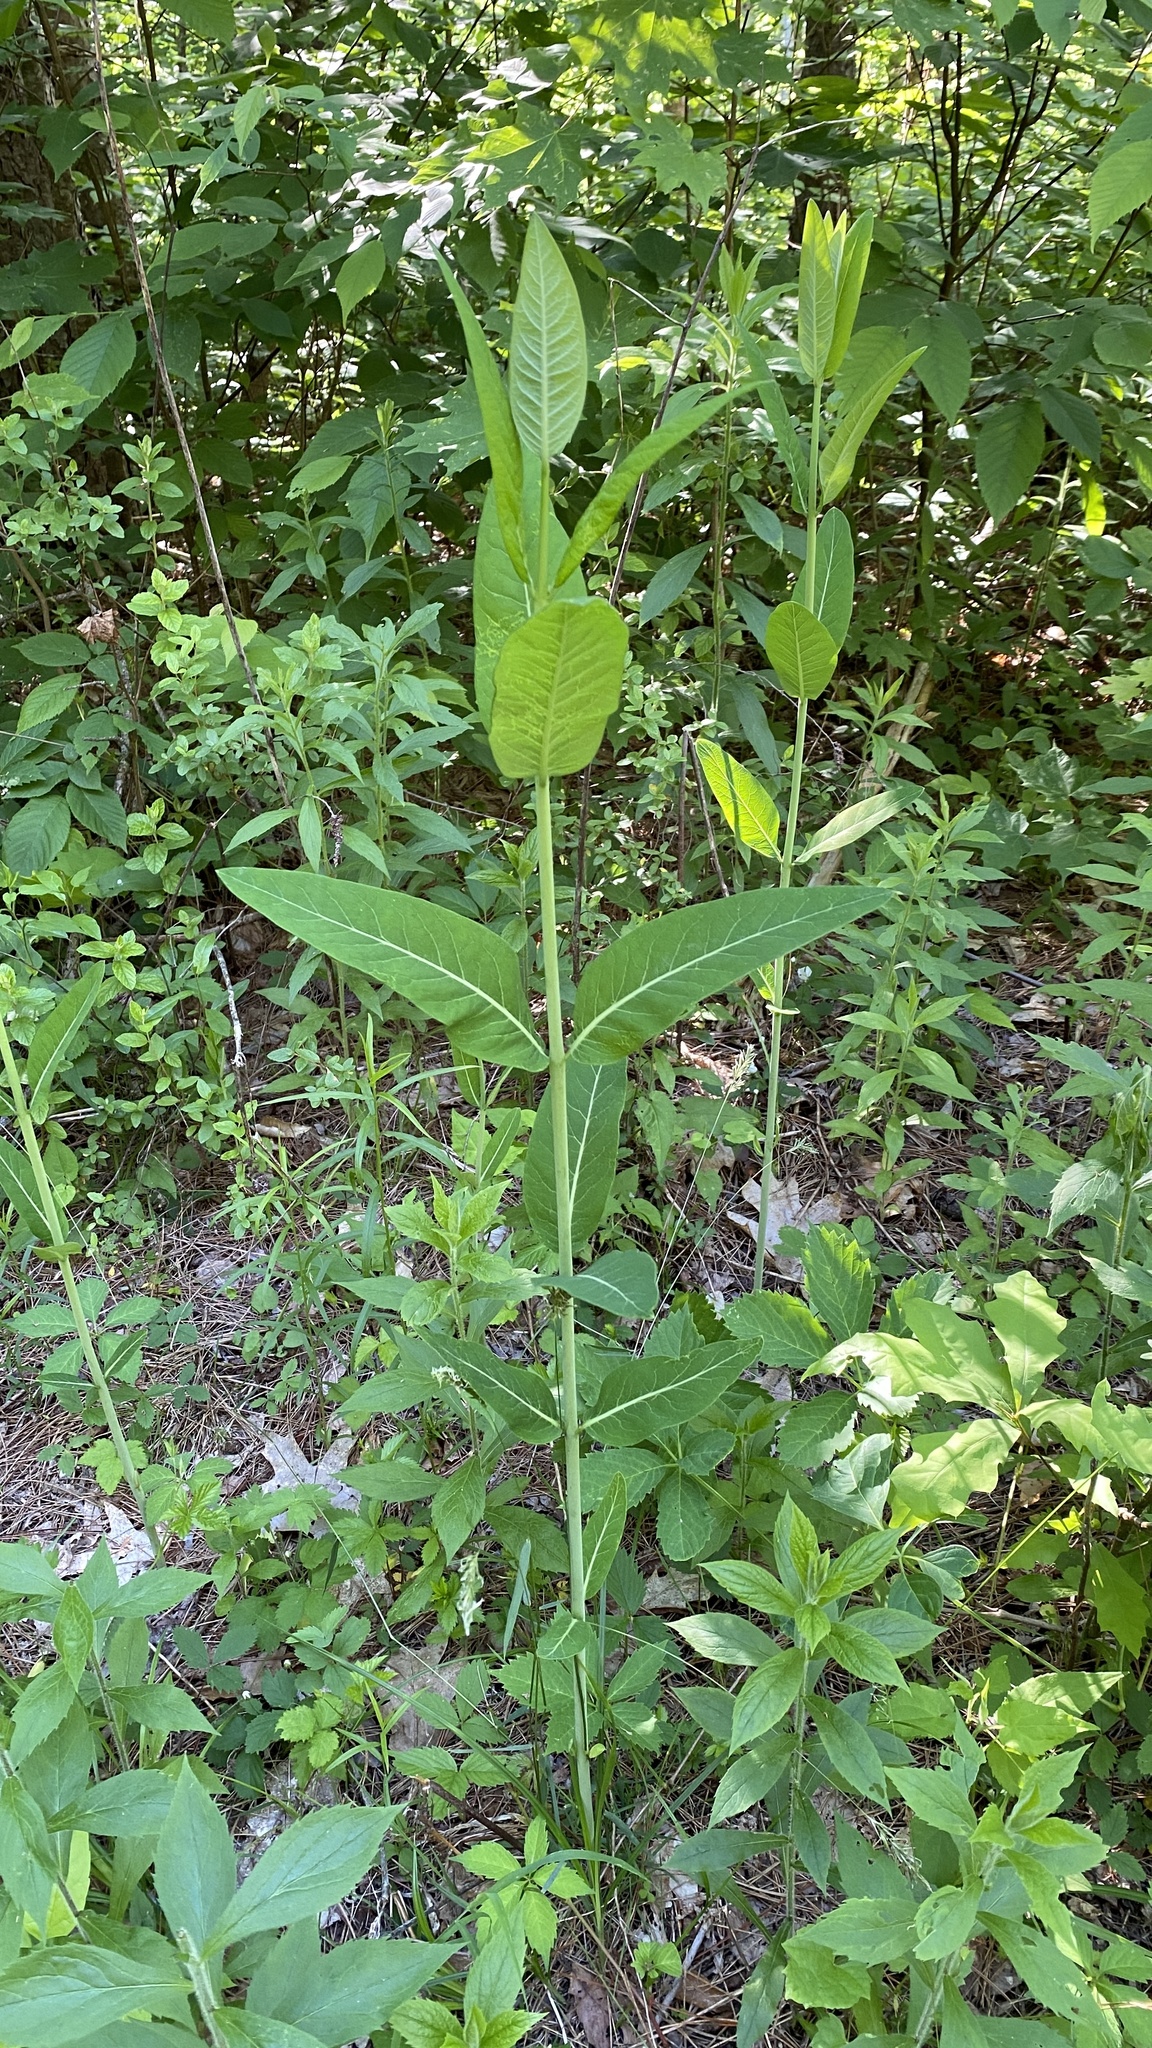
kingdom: Plantae
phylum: Tracheophyta
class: Magnoliopsida
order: Gentianales
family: Apocynaceae
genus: Apocynum
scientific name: Apocynum cannabinum
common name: Hemp dogbane
